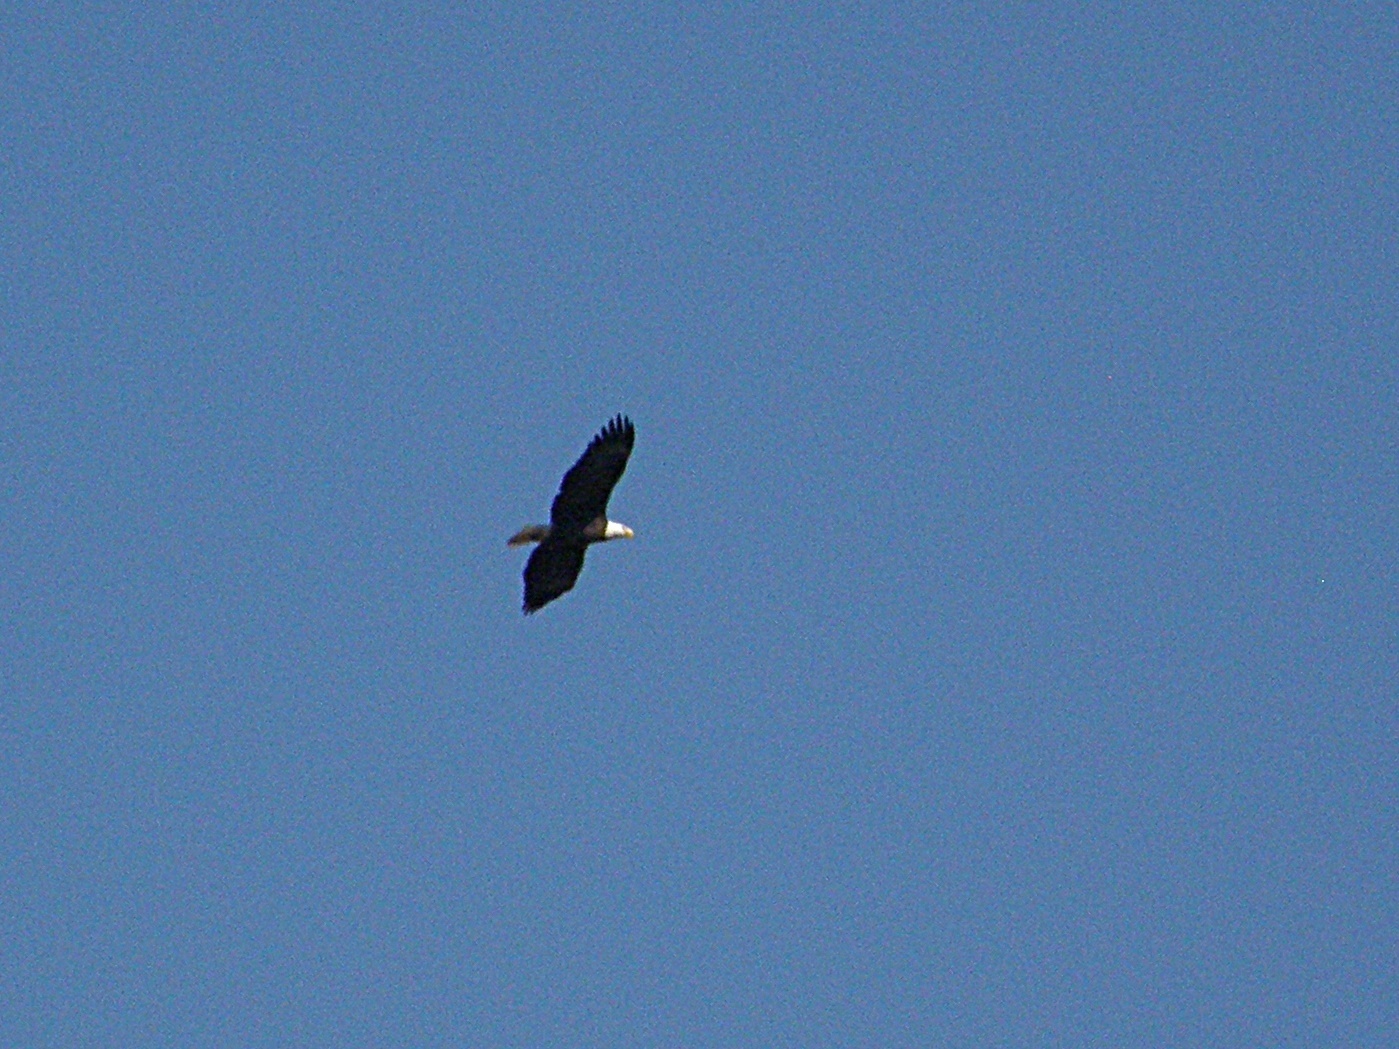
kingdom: Animalia
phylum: Chordata
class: Aves
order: Accipitriformes
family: Accipitridae
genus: Haliaeetus
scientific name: Haliaeetus leucocephalus
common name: Bald eagle
